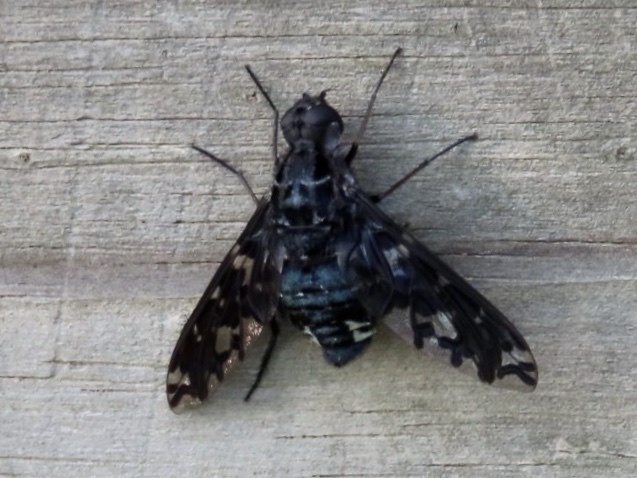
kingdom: Animalia
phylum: Arthropoda
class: Insecta
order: Diptera
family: Bombyliidae
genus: Xenox
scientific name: Xenox tigrinus
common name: Tiger bee fly
